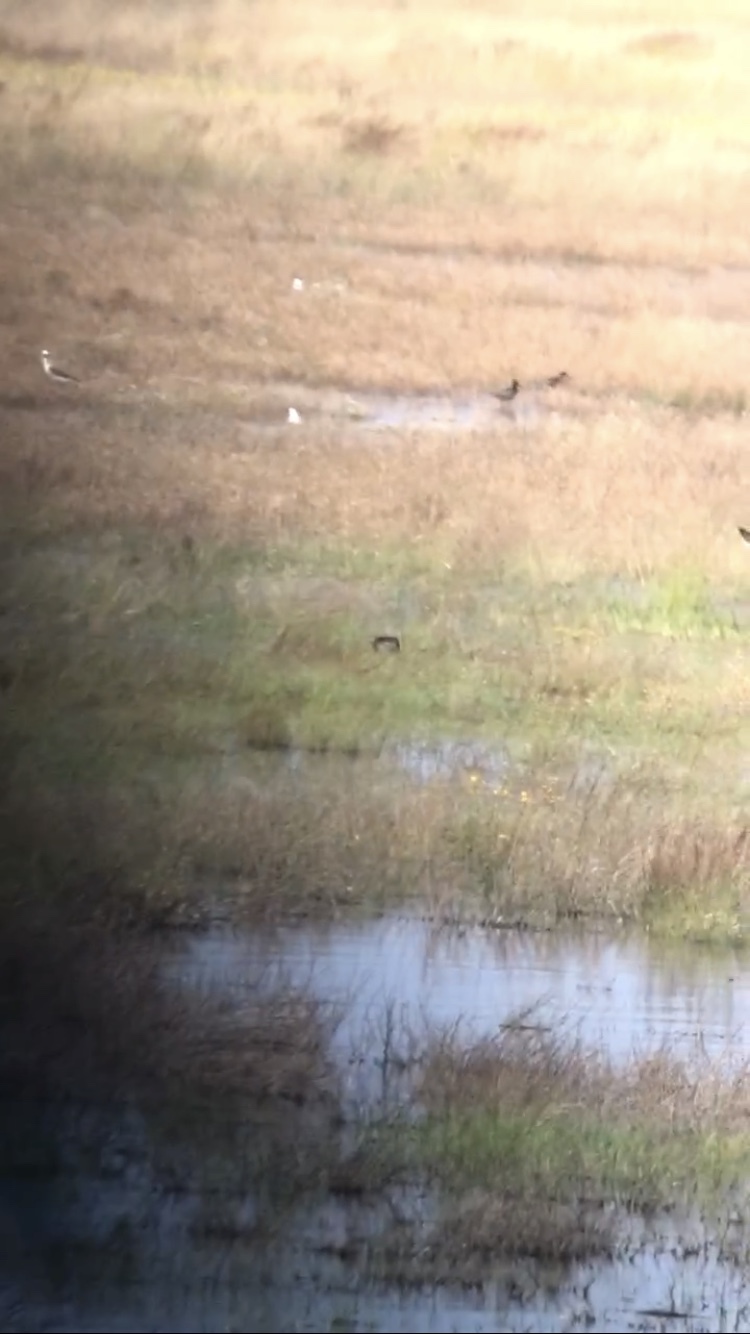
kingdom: Animalia
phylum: Chordata
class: Aves
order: Charadriiformes
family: Scolopacidae
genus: Tringa
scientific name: Tringa erythropus
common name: Spotted redshank
